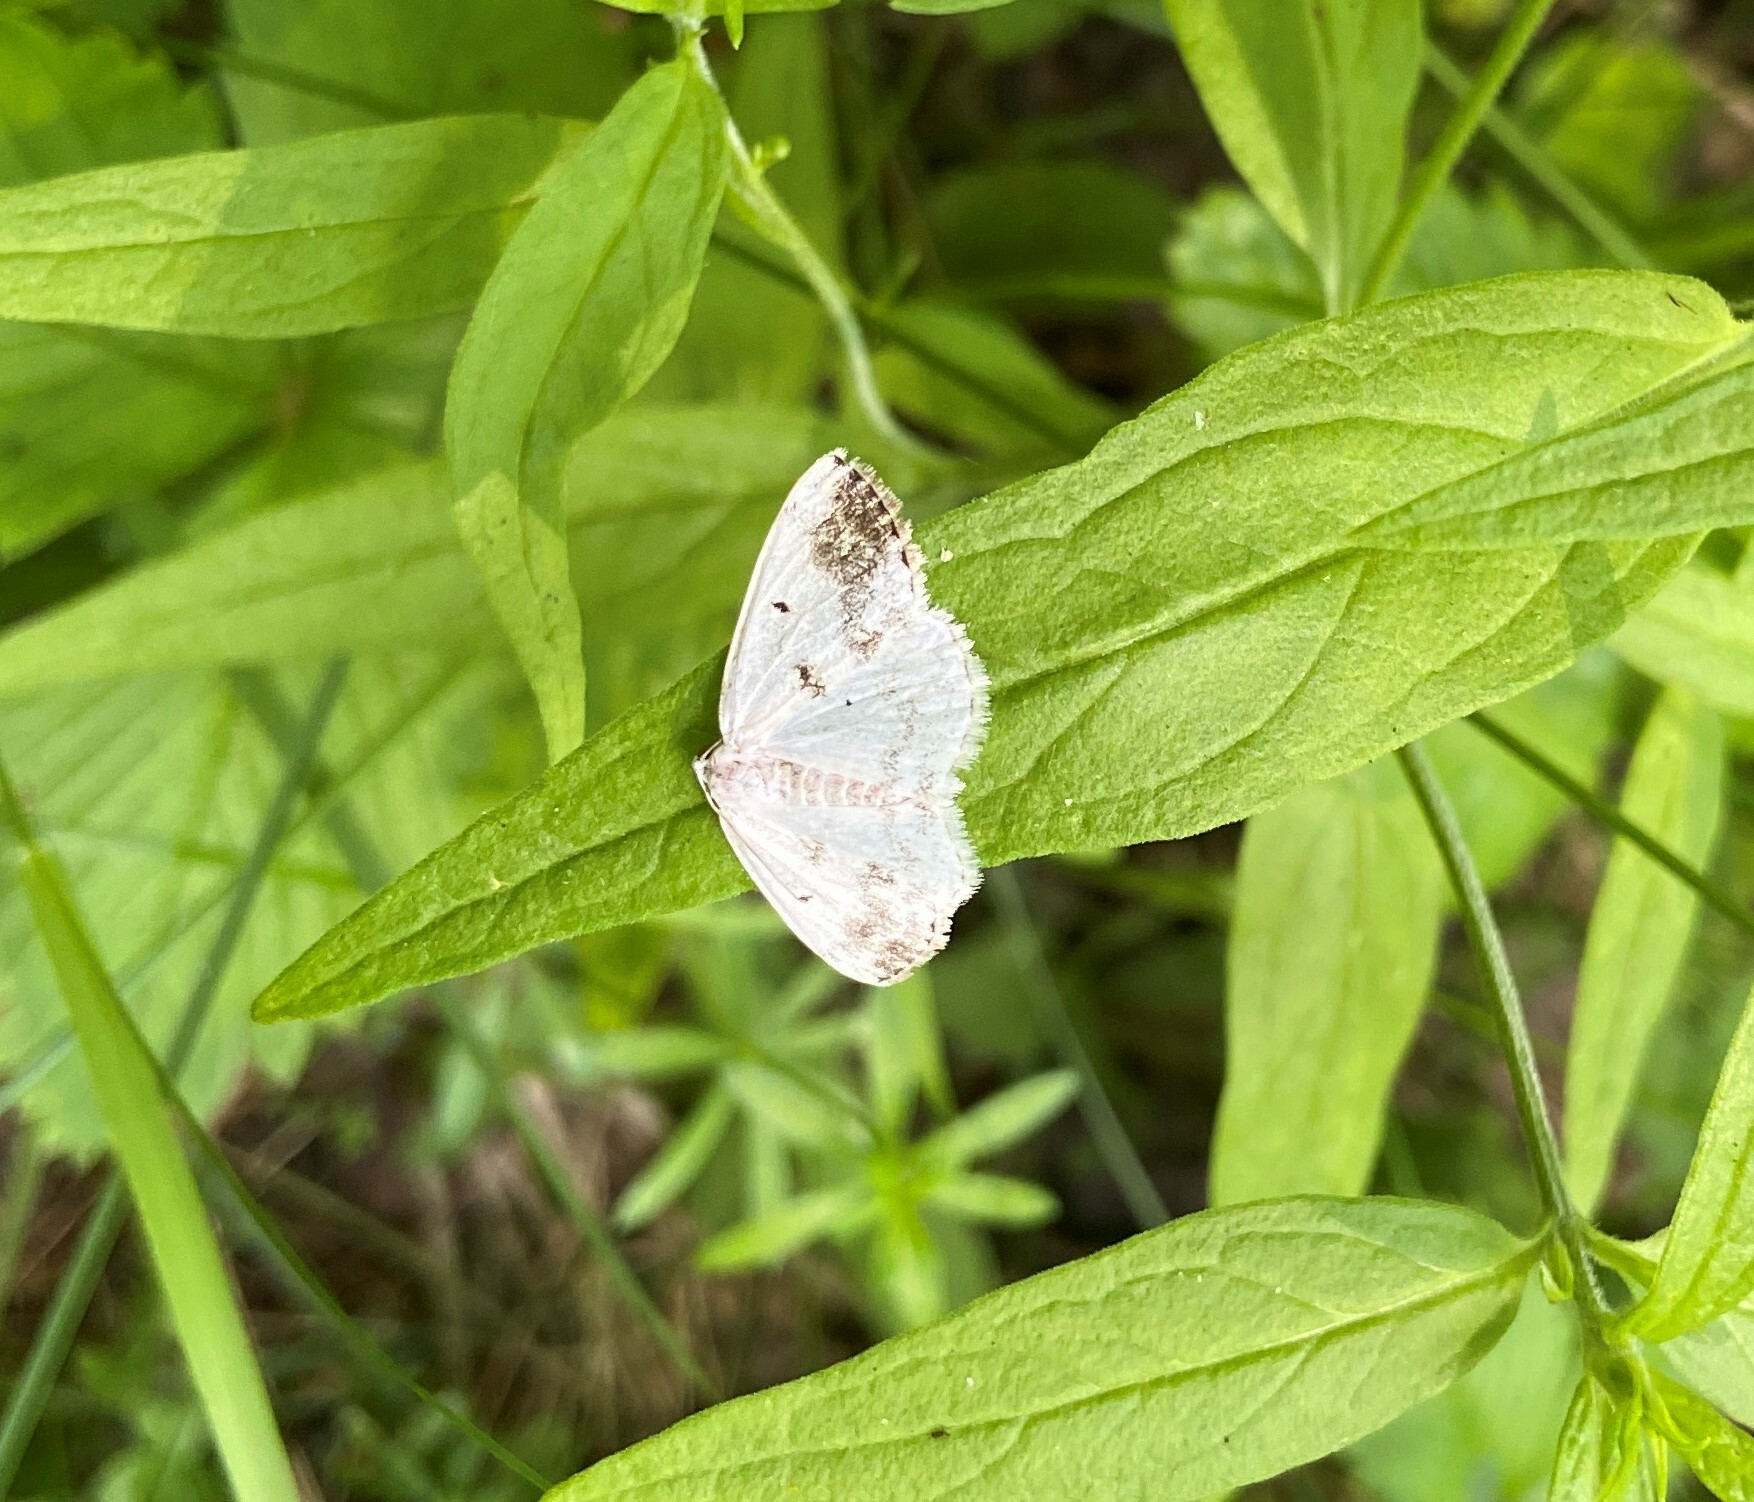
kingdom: Animalia
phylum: Arthropoda
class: Insecta
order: Lepidoptera
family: Geometridae
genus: Lomographa
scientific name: Lomographa temerata
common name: Clouded silver
